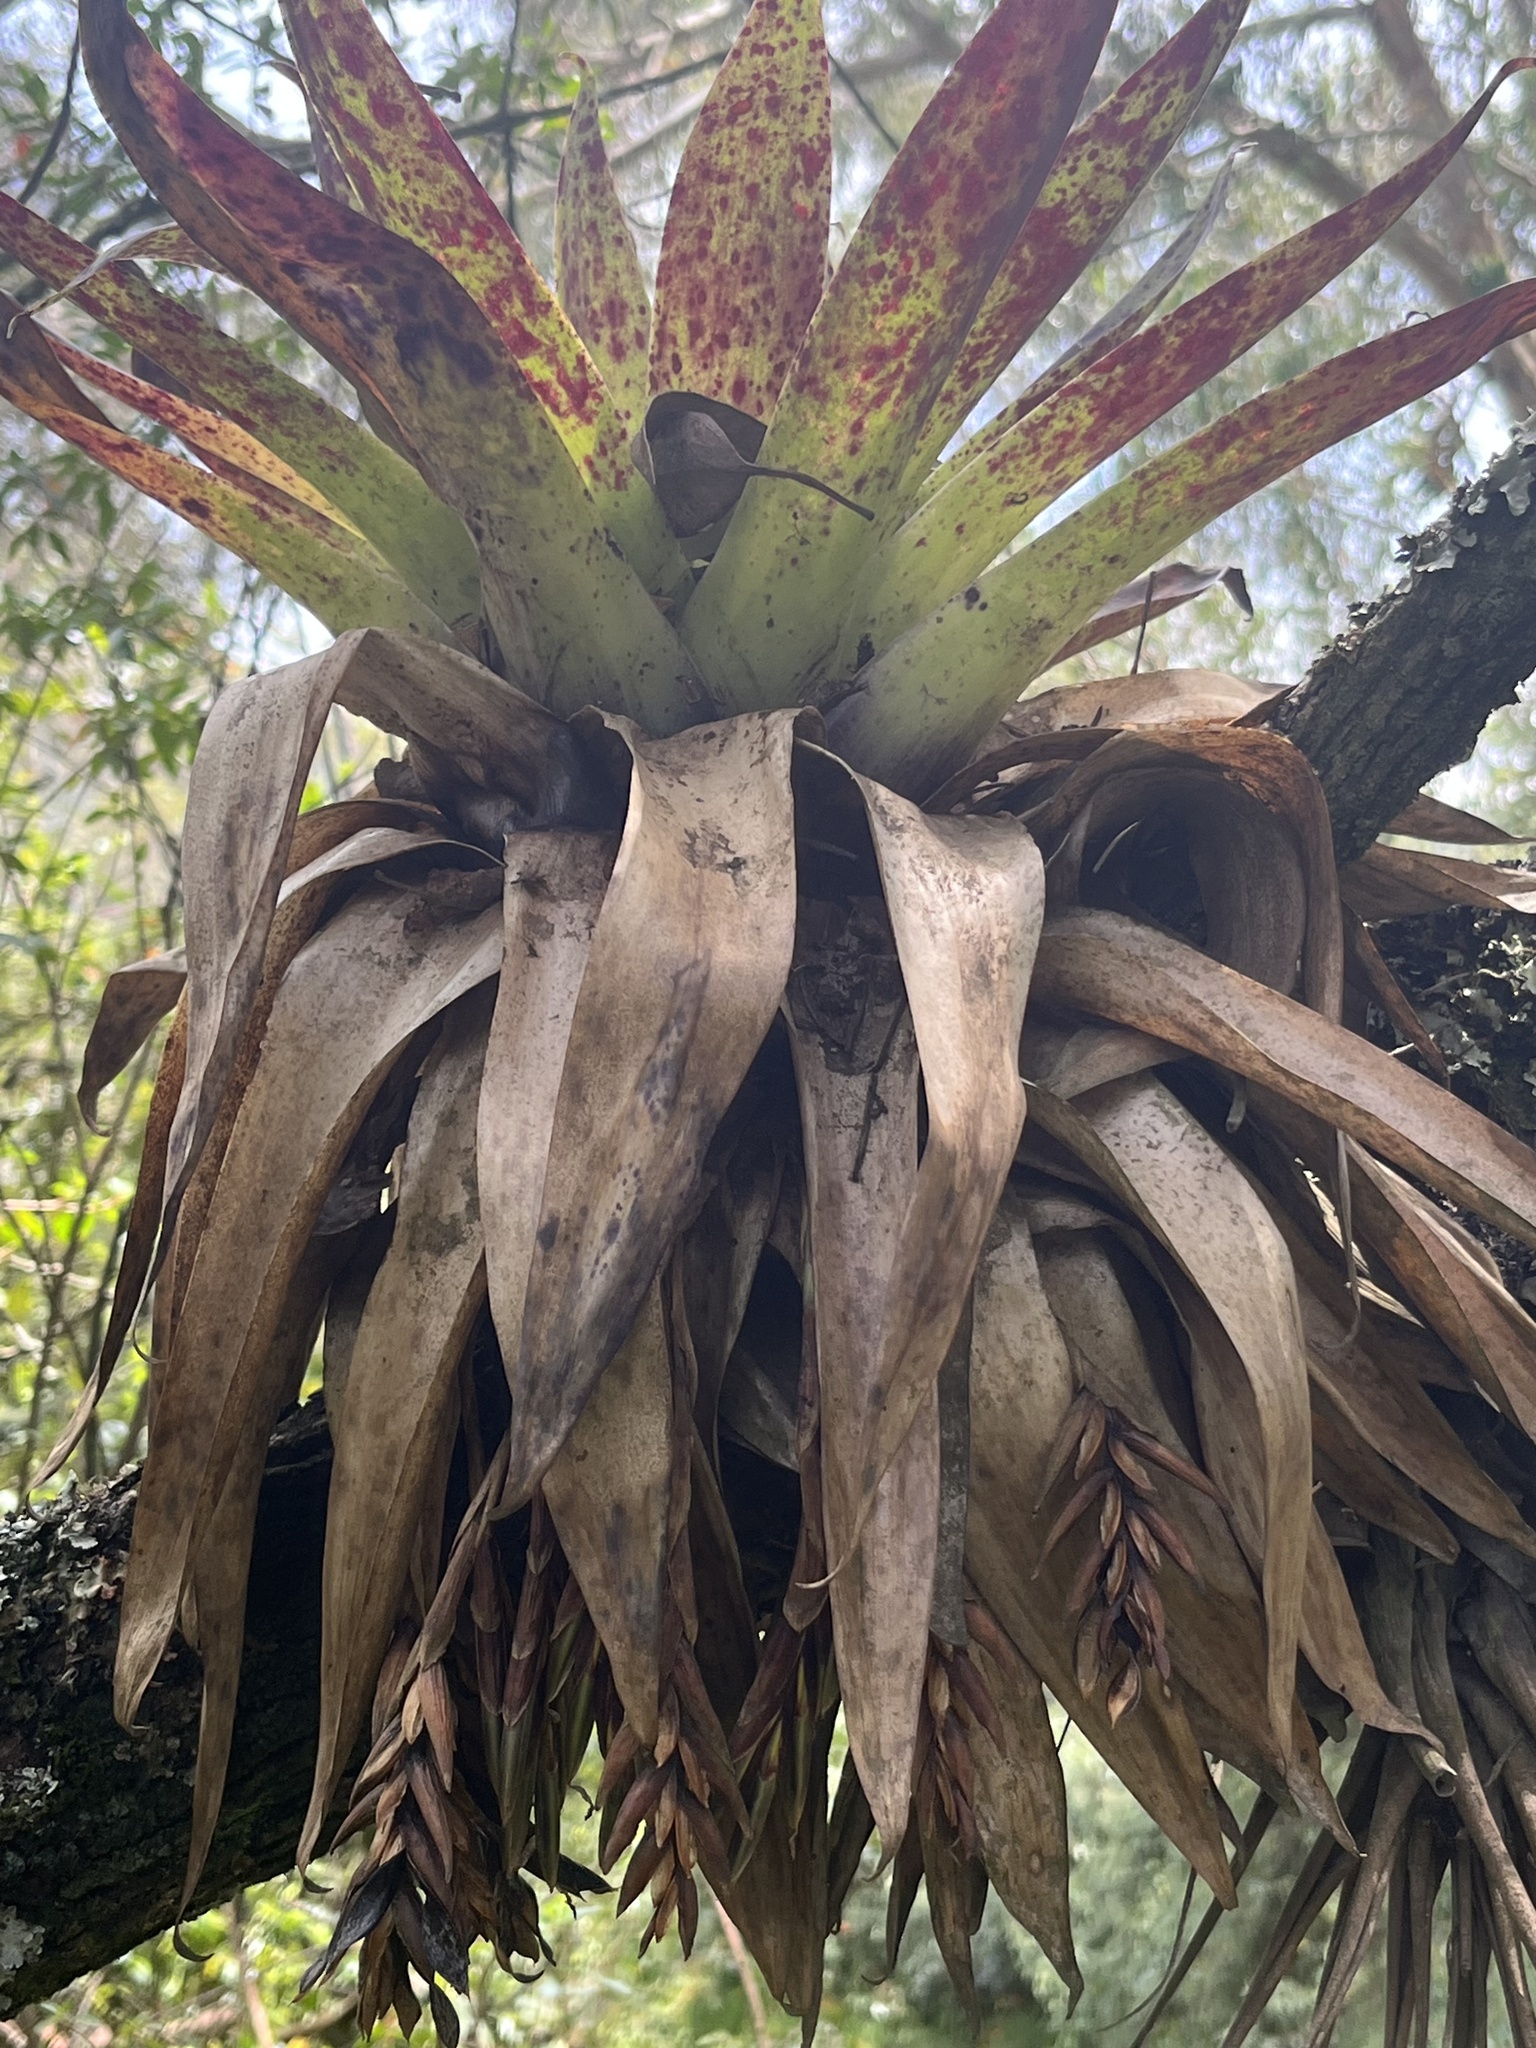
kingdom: Plantae
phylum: Tracheophyta
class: Liliopsida
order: Poales
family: Bromeliaceae
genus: Tillandsia
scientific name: Tillandsia complanata
